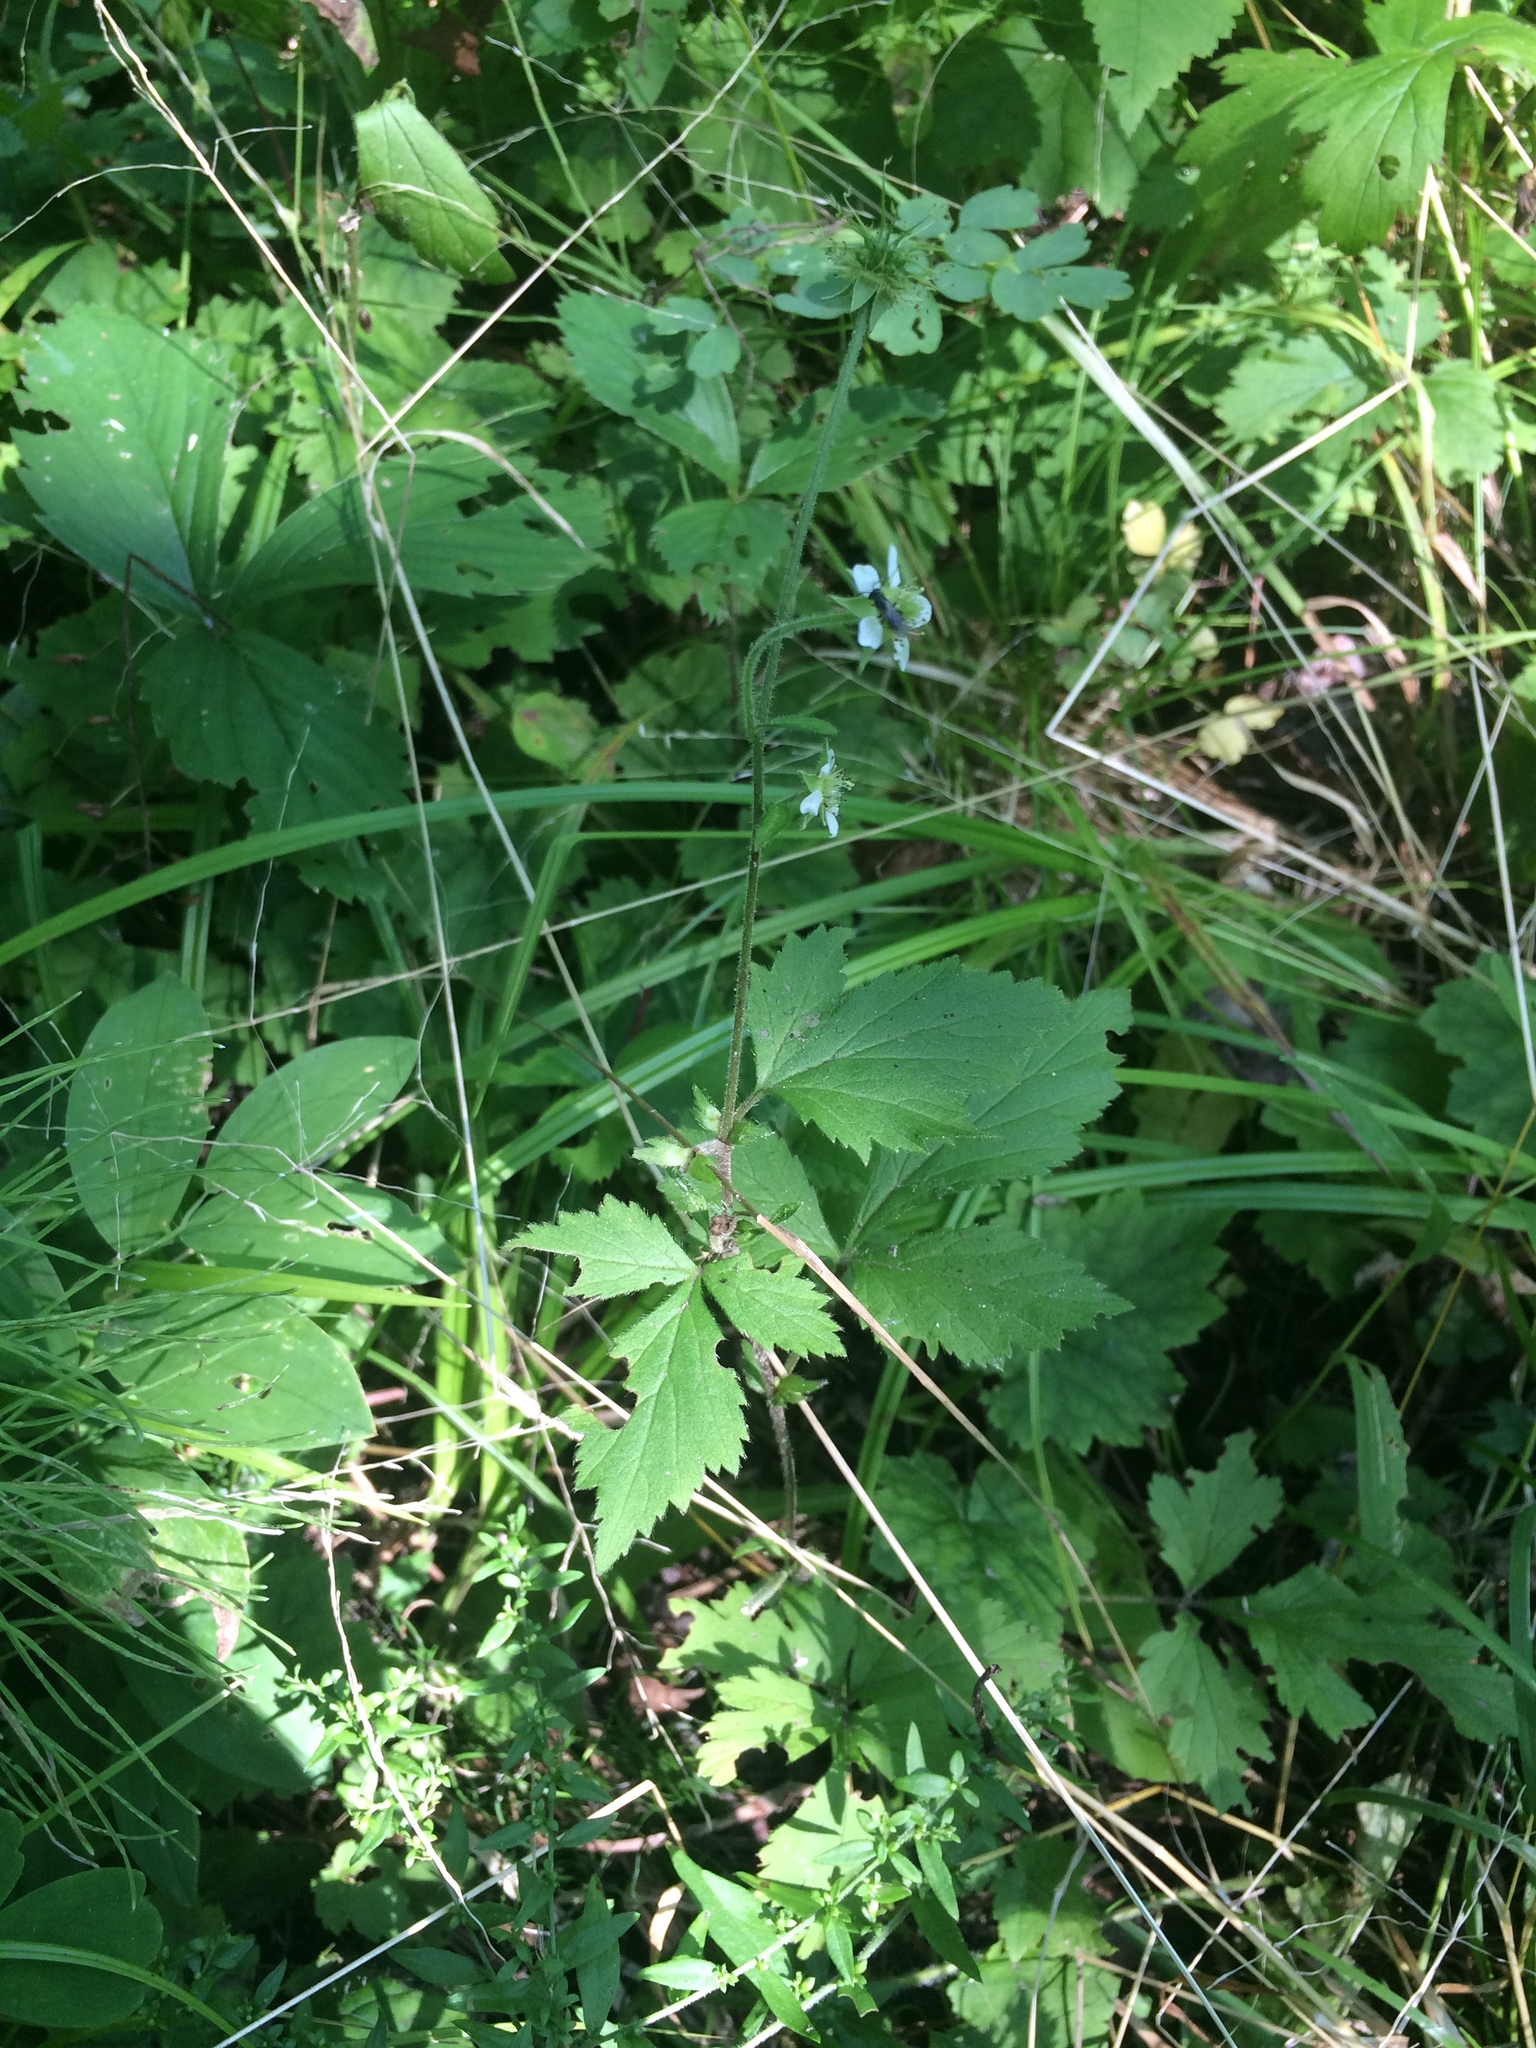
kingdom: Plantae
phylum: Tracheophyta
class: Magnoliopsida
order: Rosales
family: Rosaceae
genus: Geum
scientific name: Geum canadense
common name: White avens
